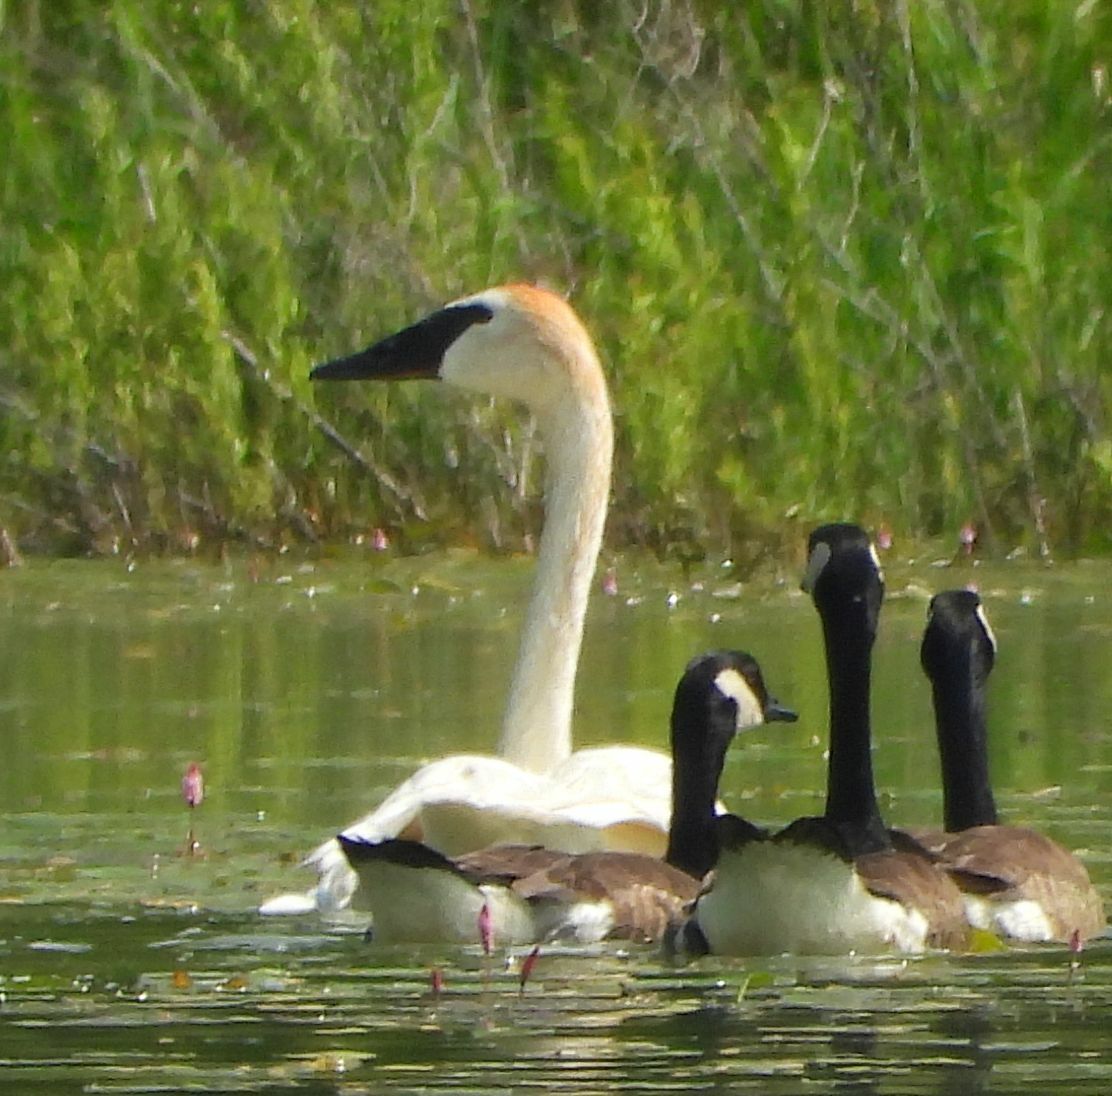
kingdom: Animalia
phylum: Chordata
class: Aves
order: Anseriformes
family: Anatidae
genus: Cygnus
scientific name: Cygnus buccinator
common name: Trumpeter swan
